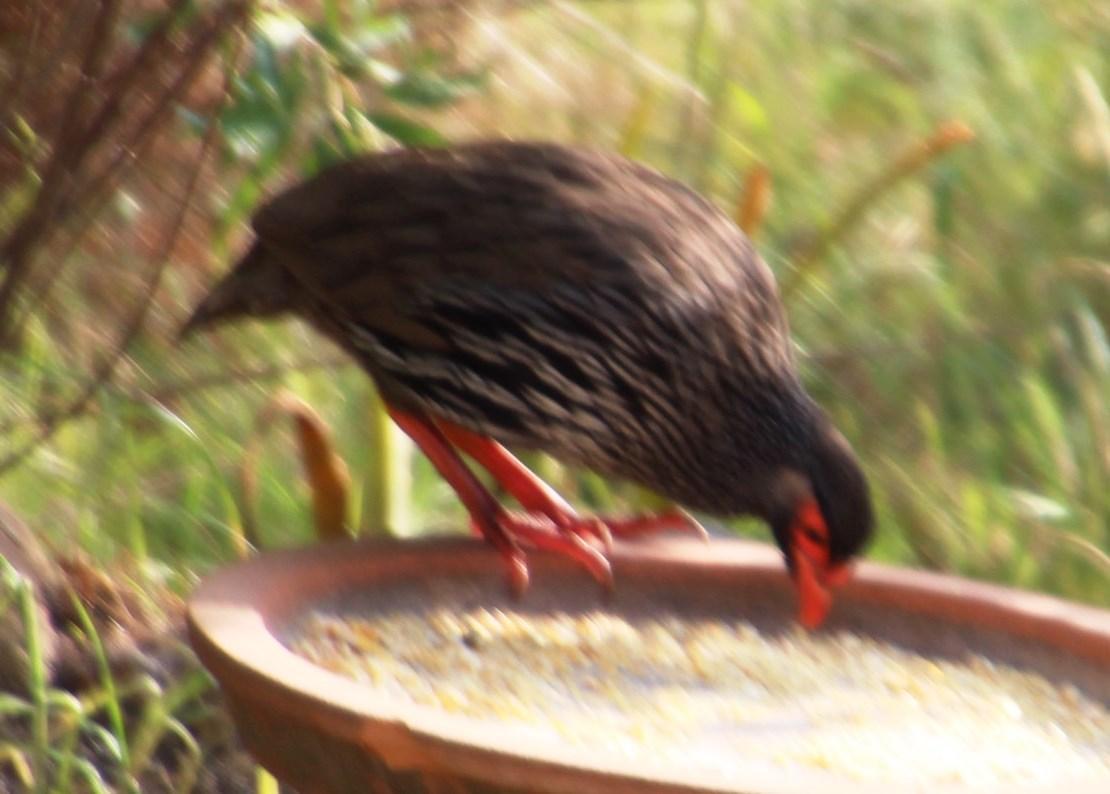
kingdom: Animalia
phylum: Chordata
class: Aves
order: Galliformes
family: Phasianidae
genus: Pternistis
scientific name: Pternistis afer
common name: Red-necked spurfowl
